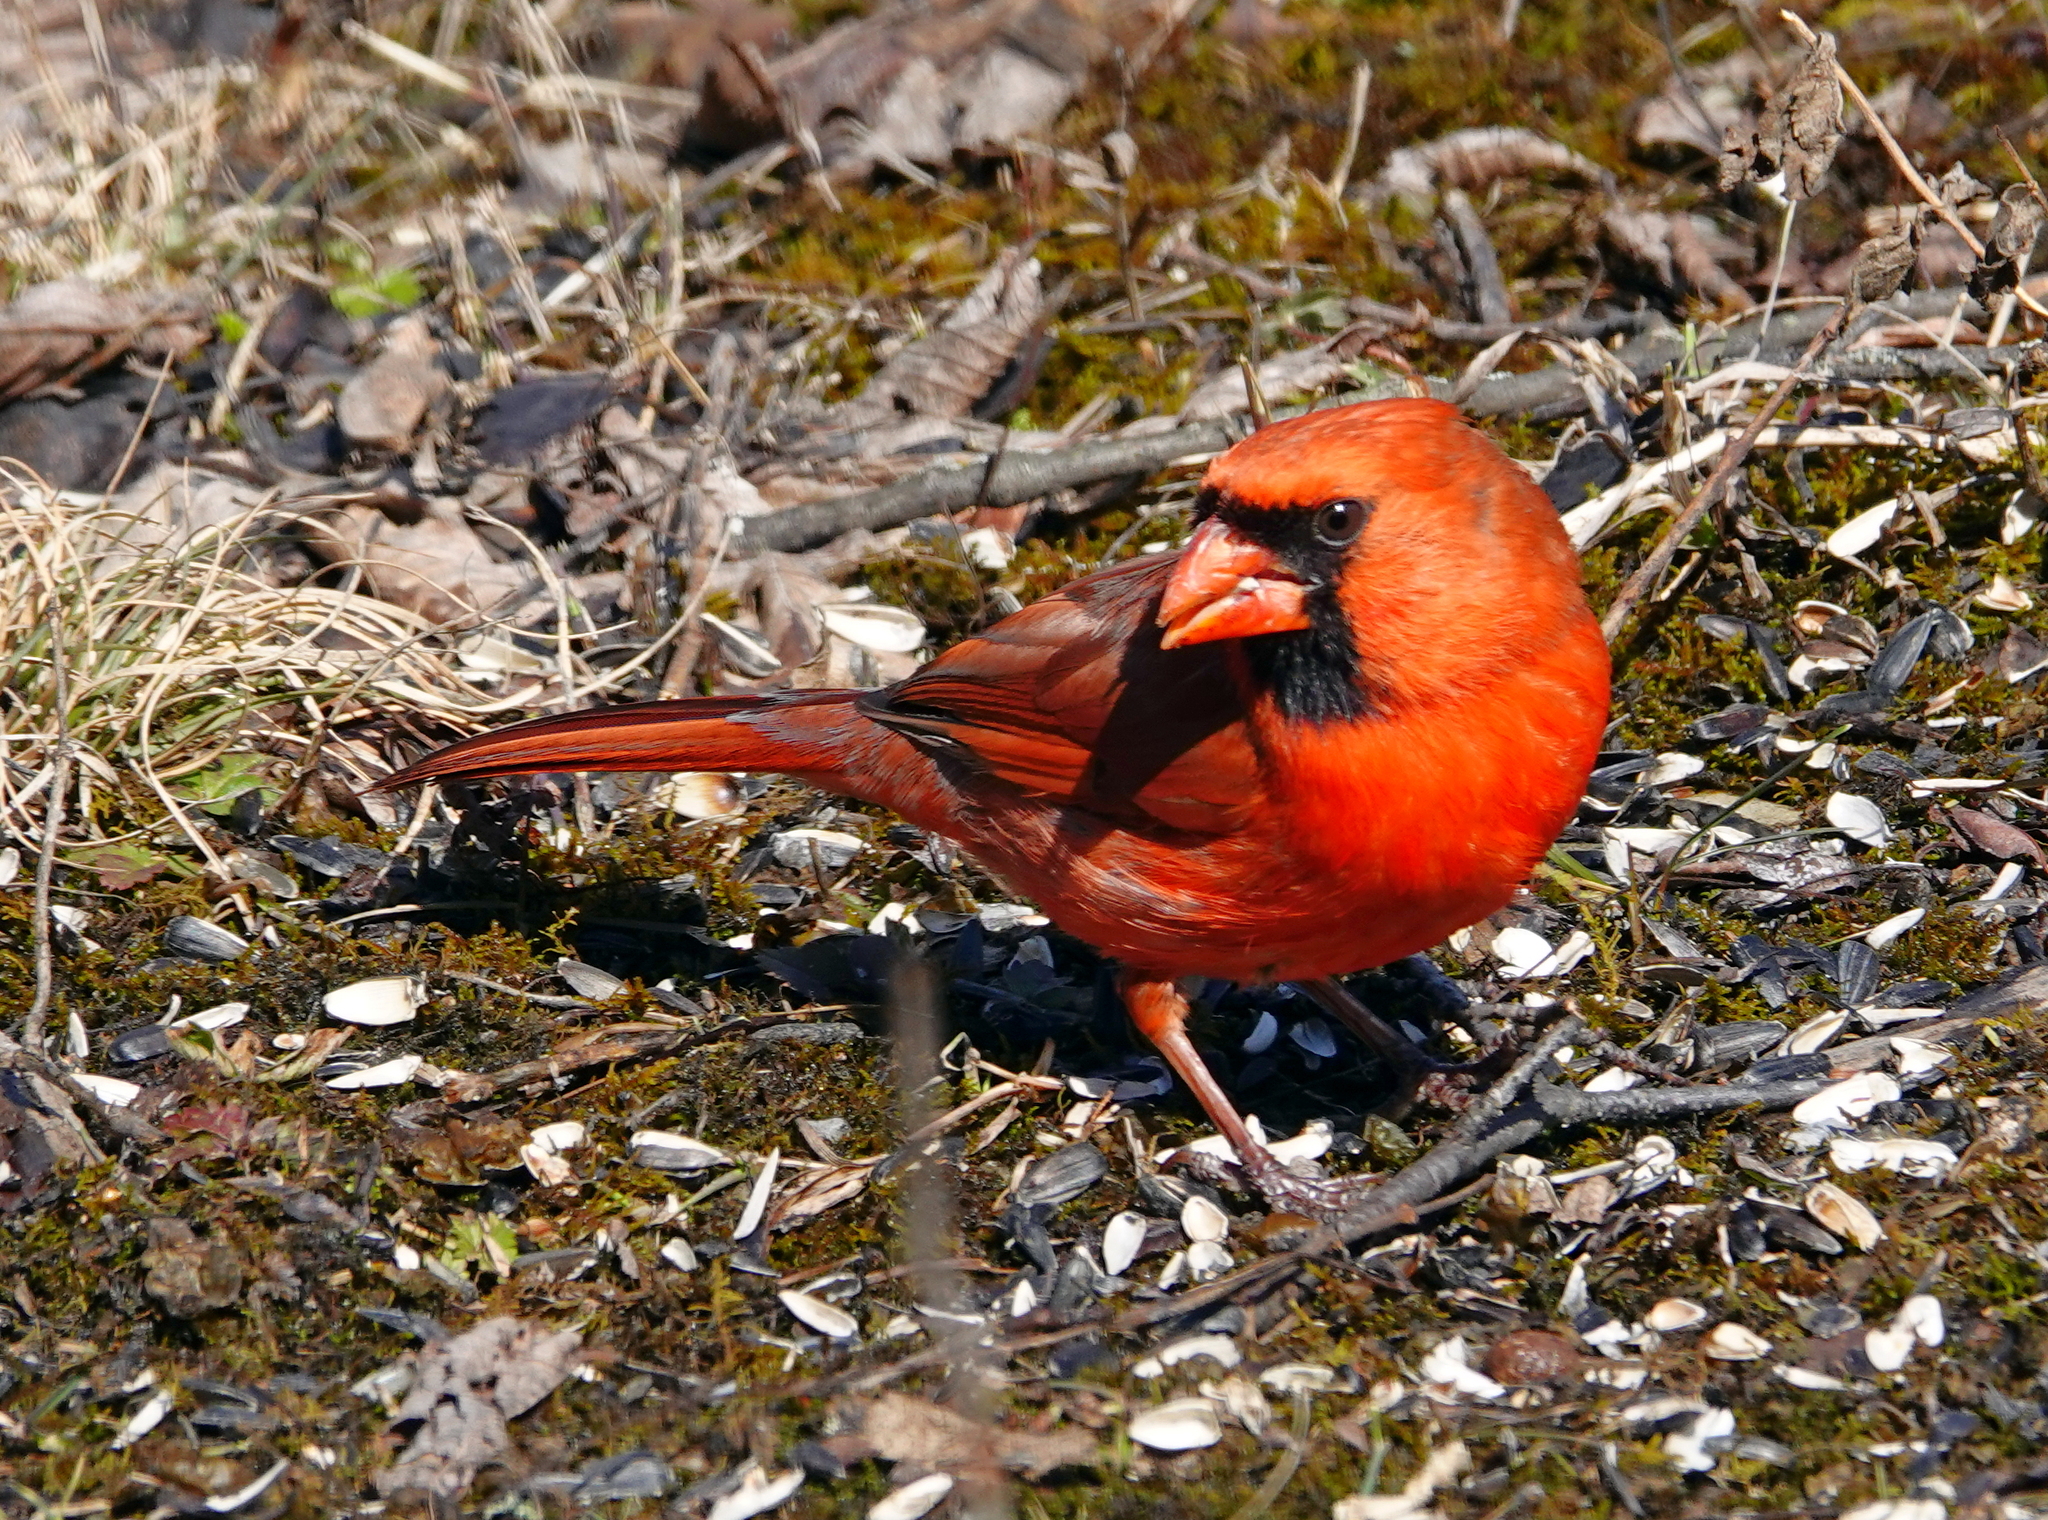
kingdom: Animalia
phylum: Chordata
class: Aves
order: Passeriformes
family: Cardinalidae
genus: Cardinalis
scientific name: Cardinalis cardinalis
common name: Northern cardinal
